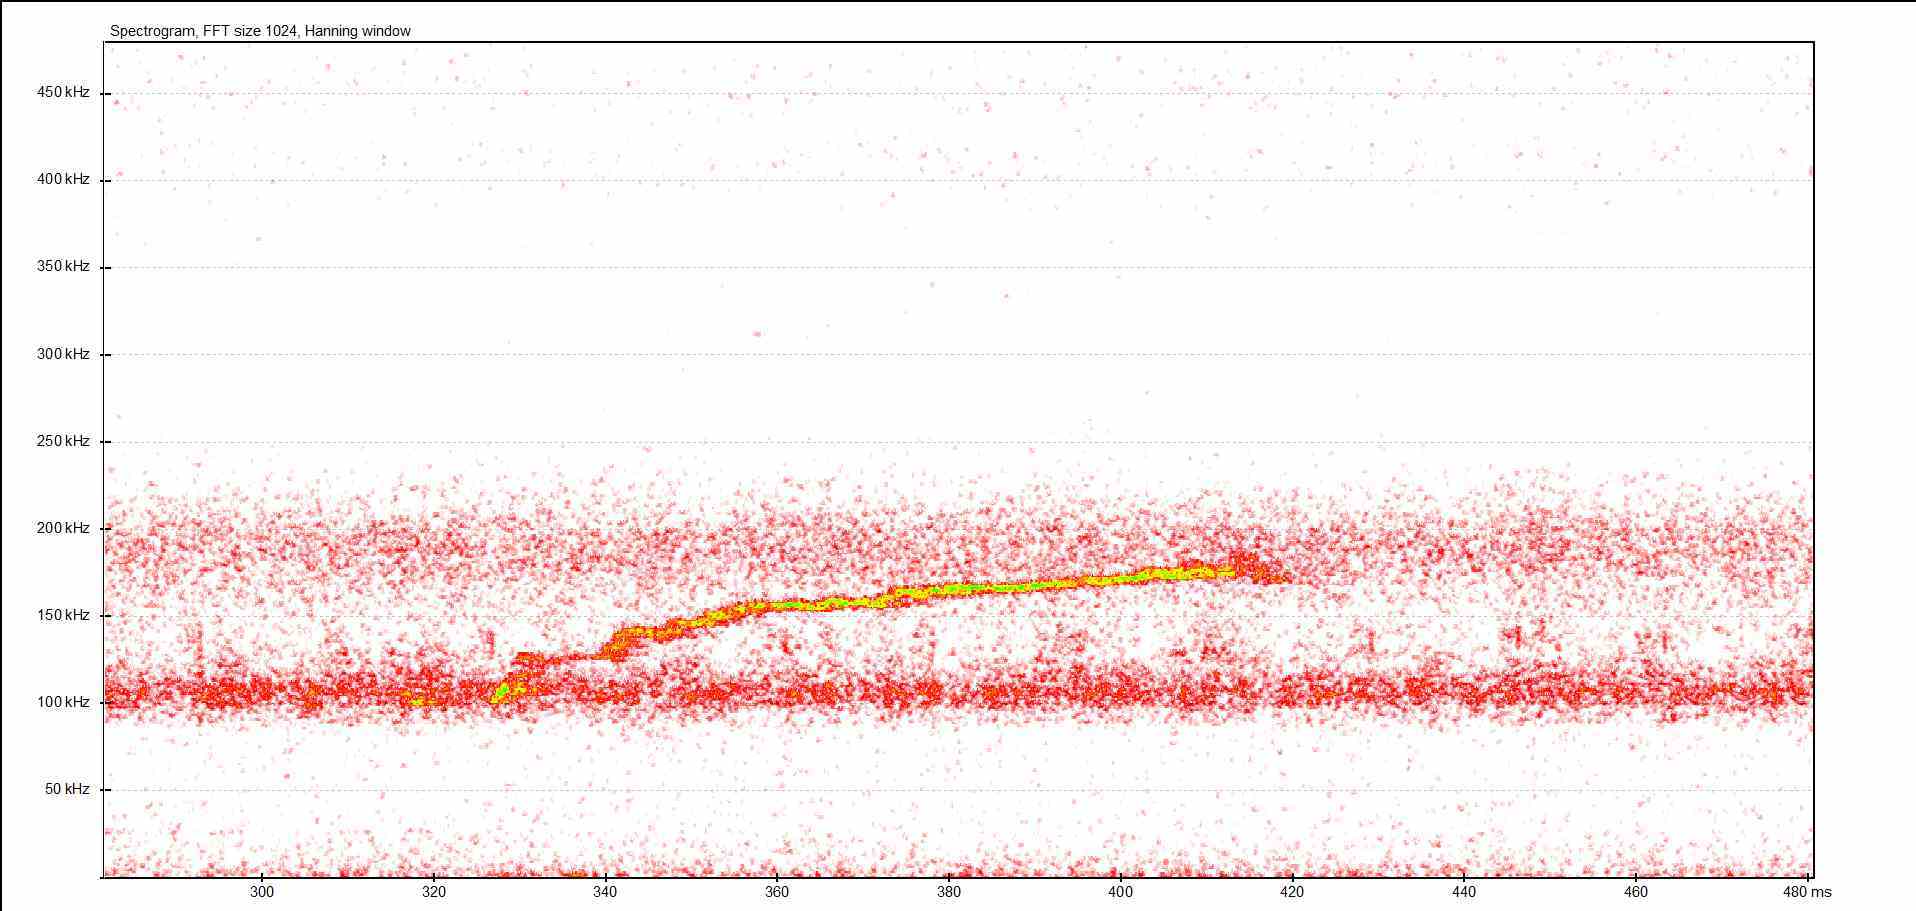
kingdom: Animalia
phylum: Chordata
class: Mammalia
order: Rodentia
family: Gliridae
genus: Muscardinus
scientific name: Muscardinus avellanarius
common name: Hazel dormouse
